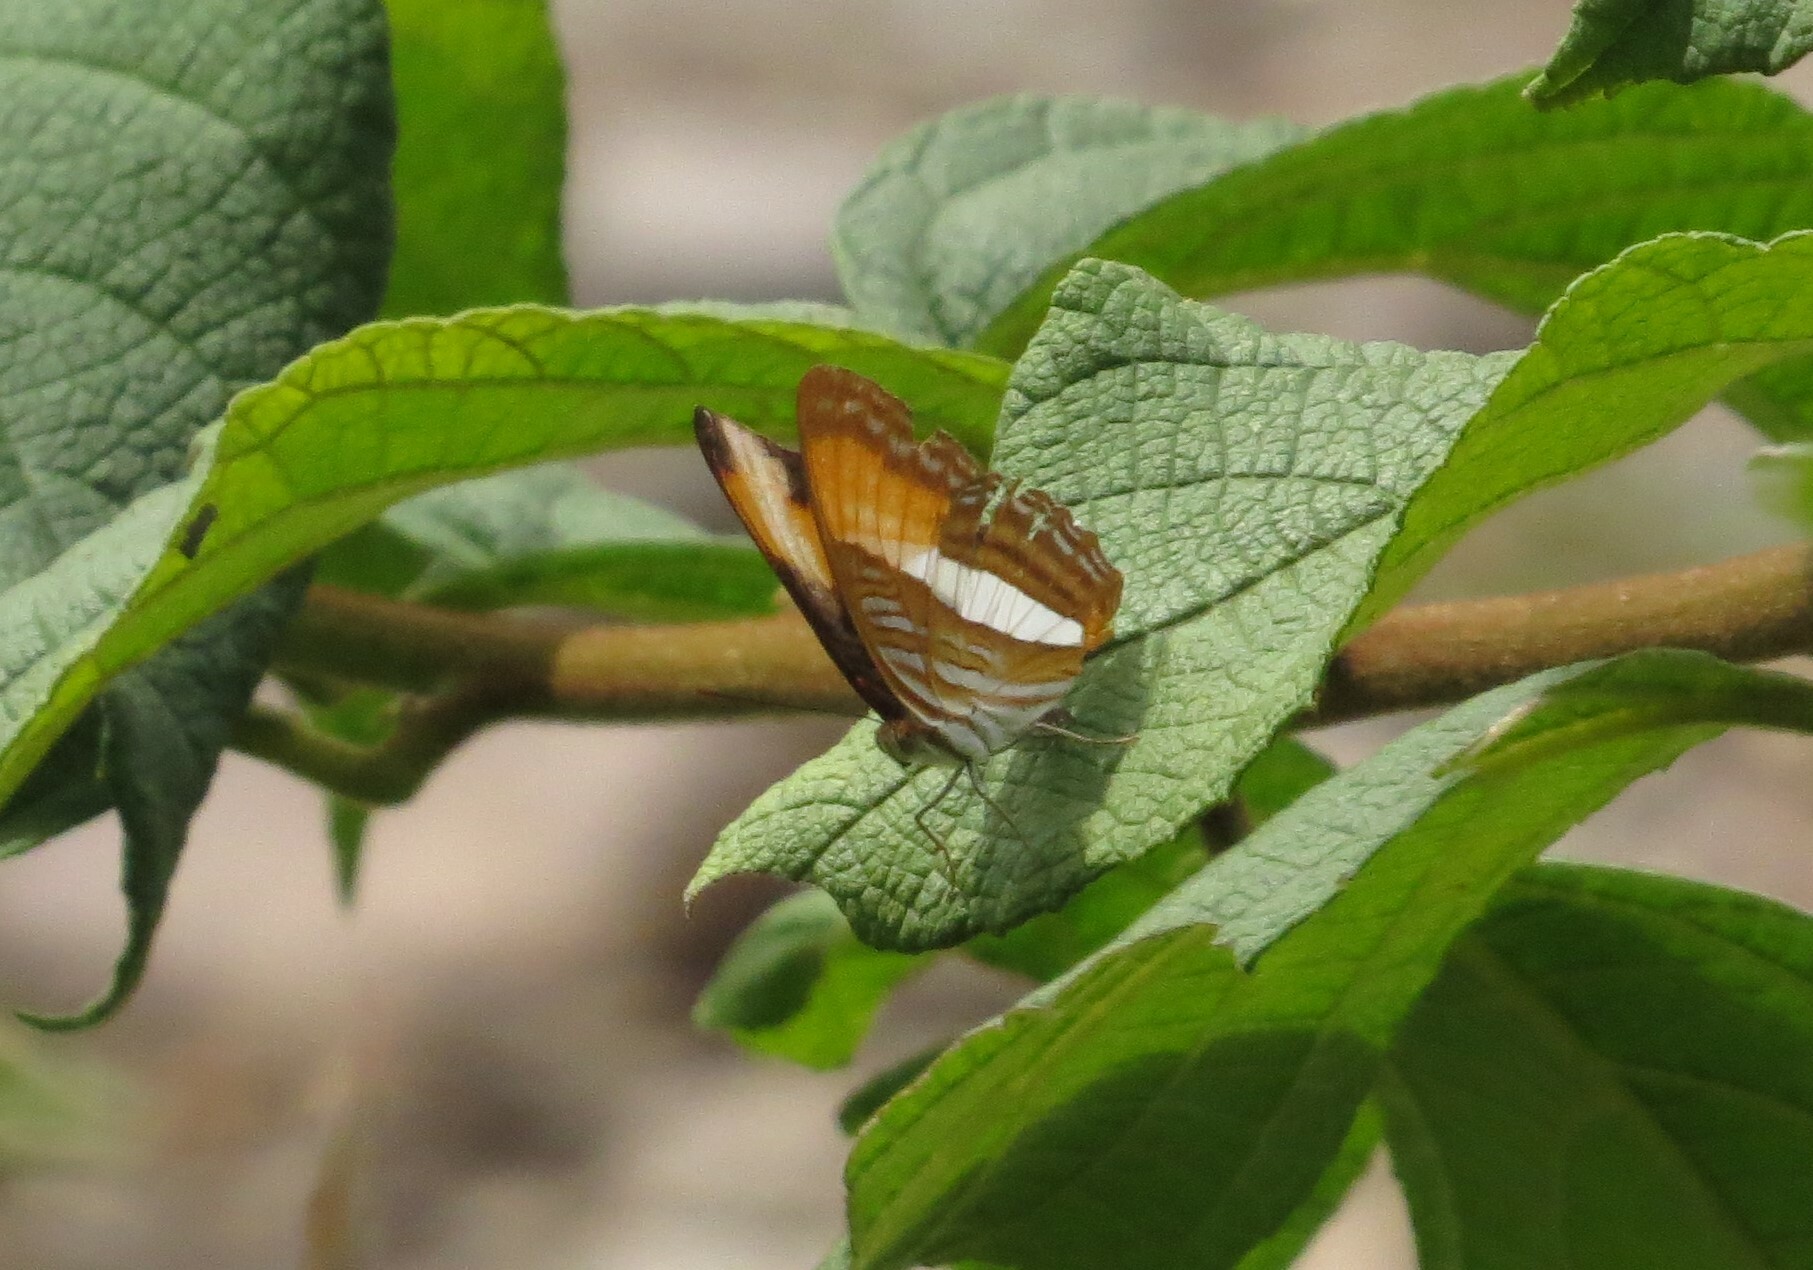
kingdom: Animalia
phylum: Arthropoda
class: Insecta
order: Lepidoptera
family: Nymphalidae
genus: Limenitis
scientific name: Limenitis cytherea
